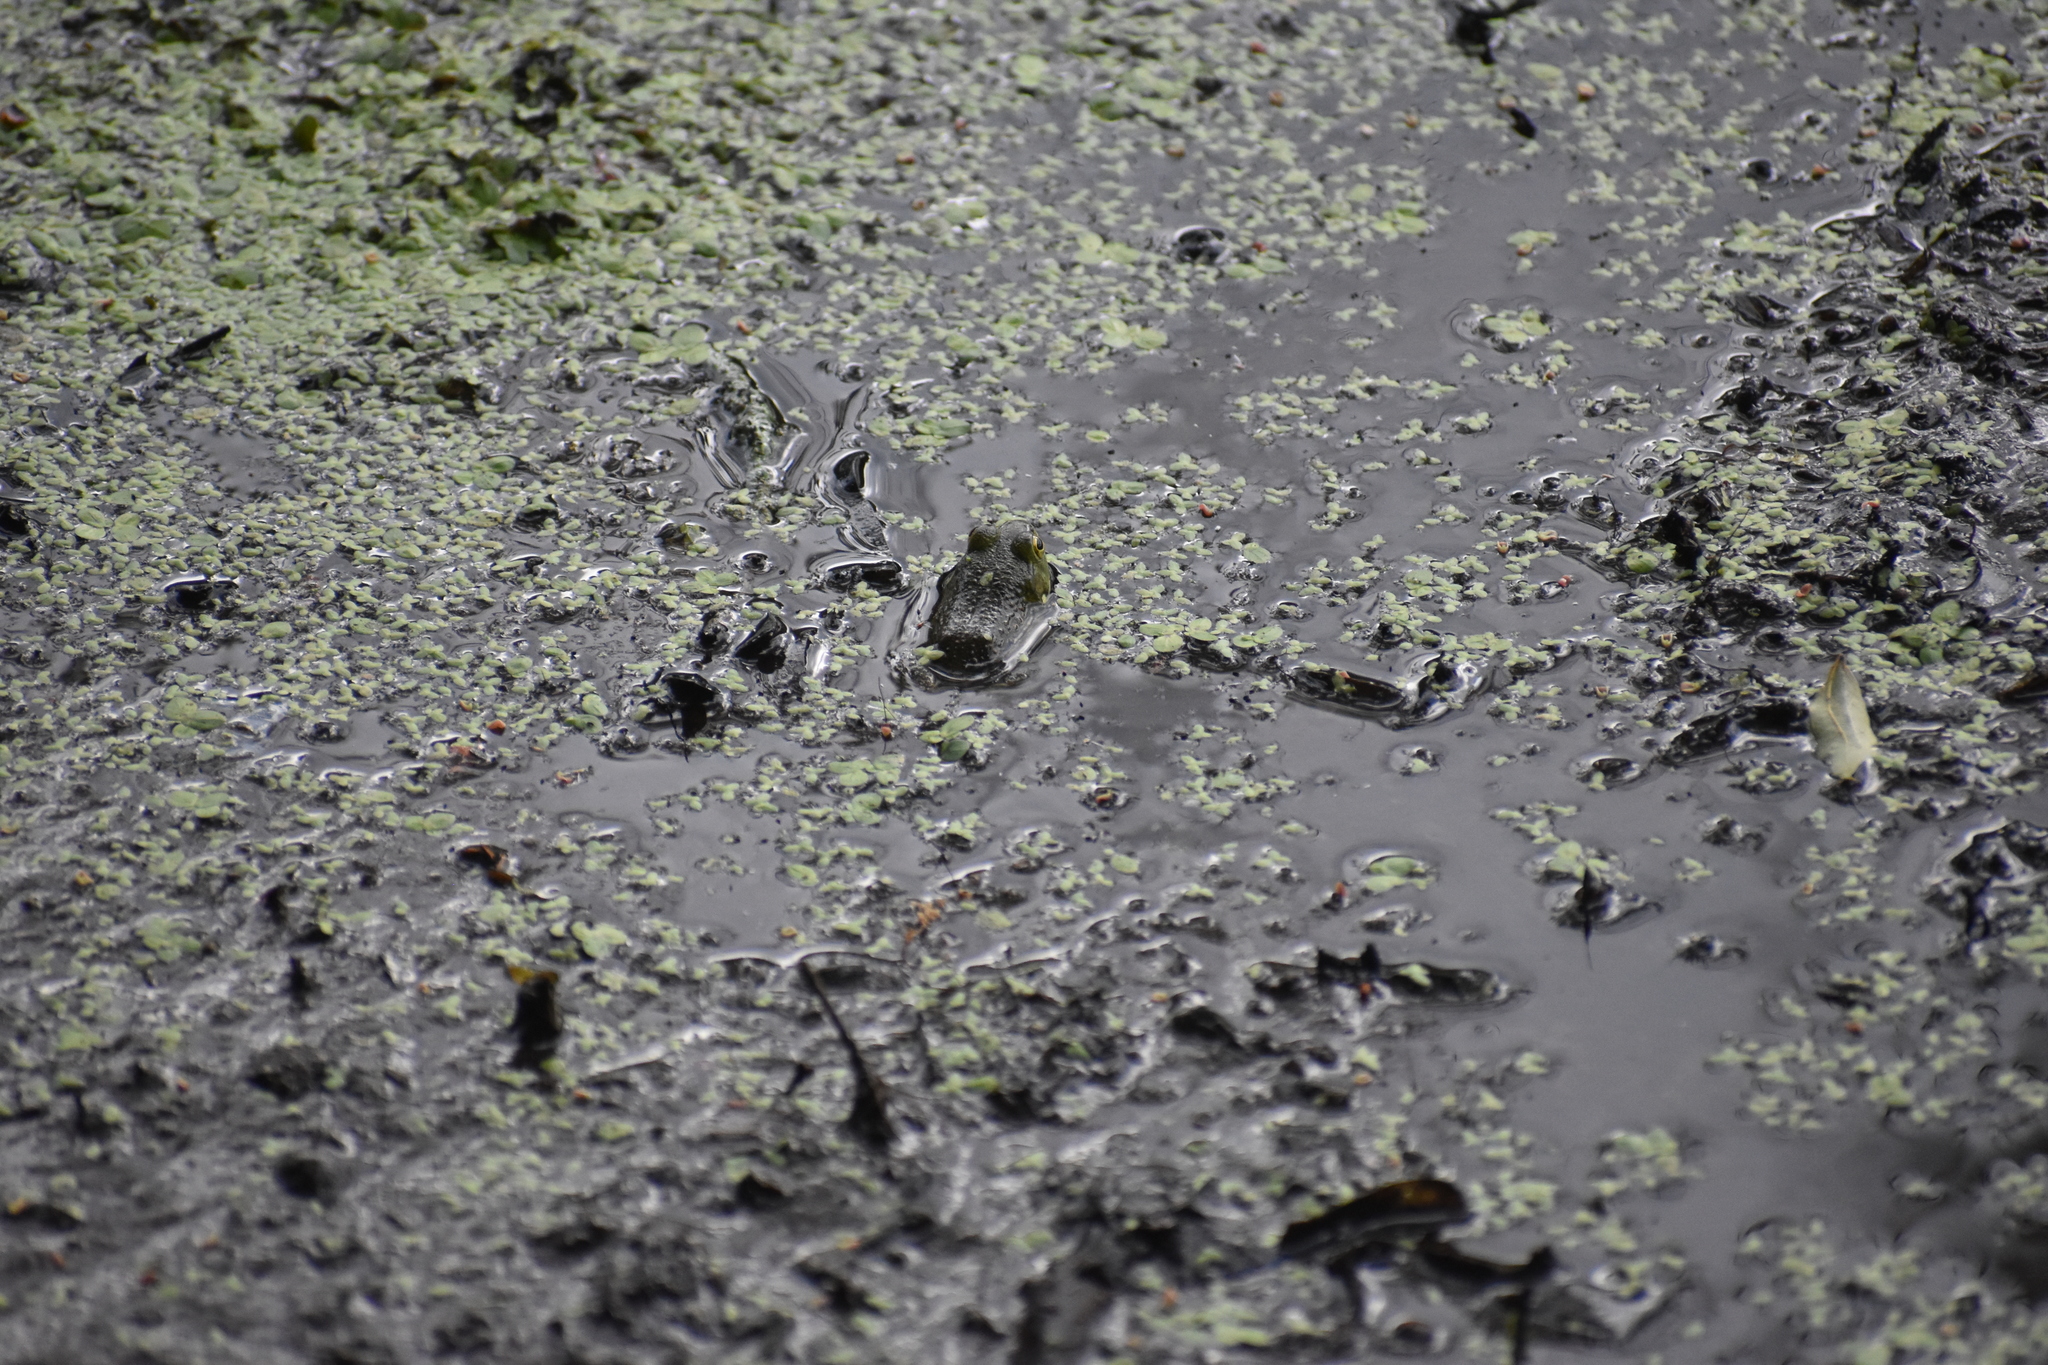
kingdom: Animalia
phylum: Chordata
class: Amphibia
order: Anura
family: Ranidae
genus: Lithobates
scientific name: Lithobates catesbeianus
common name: American bullfrog
